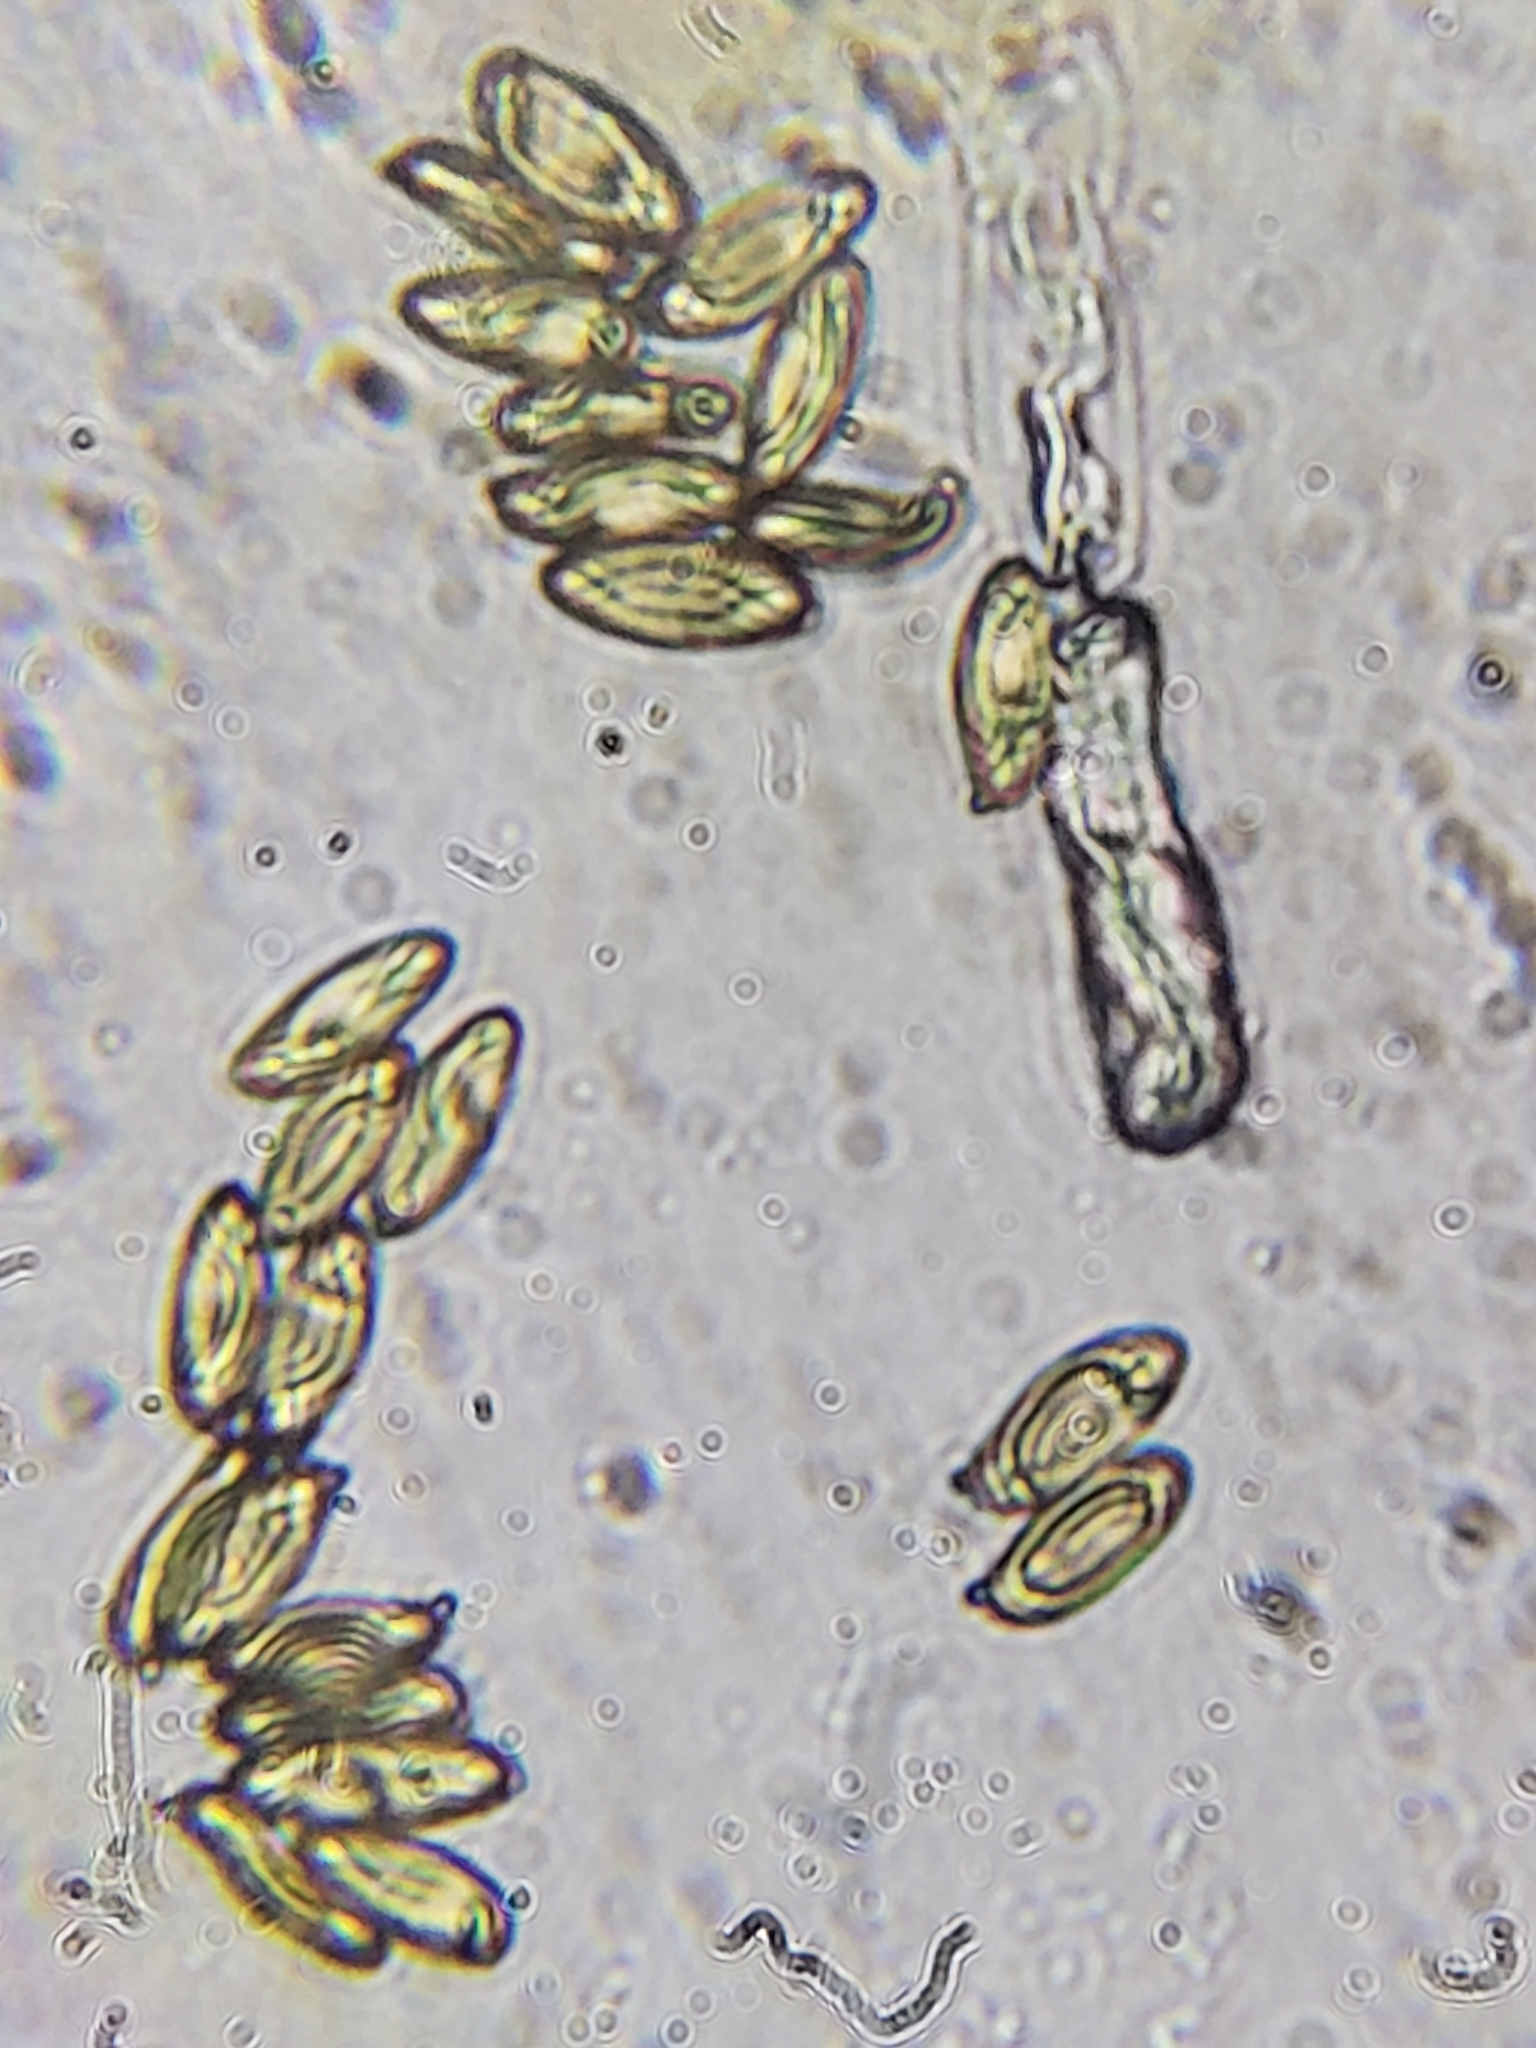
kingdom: Fungi
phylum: Basidiomycota
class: Agaricomycetes
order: Boletales
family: Boletaceae
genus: Pulveroboletus
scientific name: Pulveroboletus curtisii
